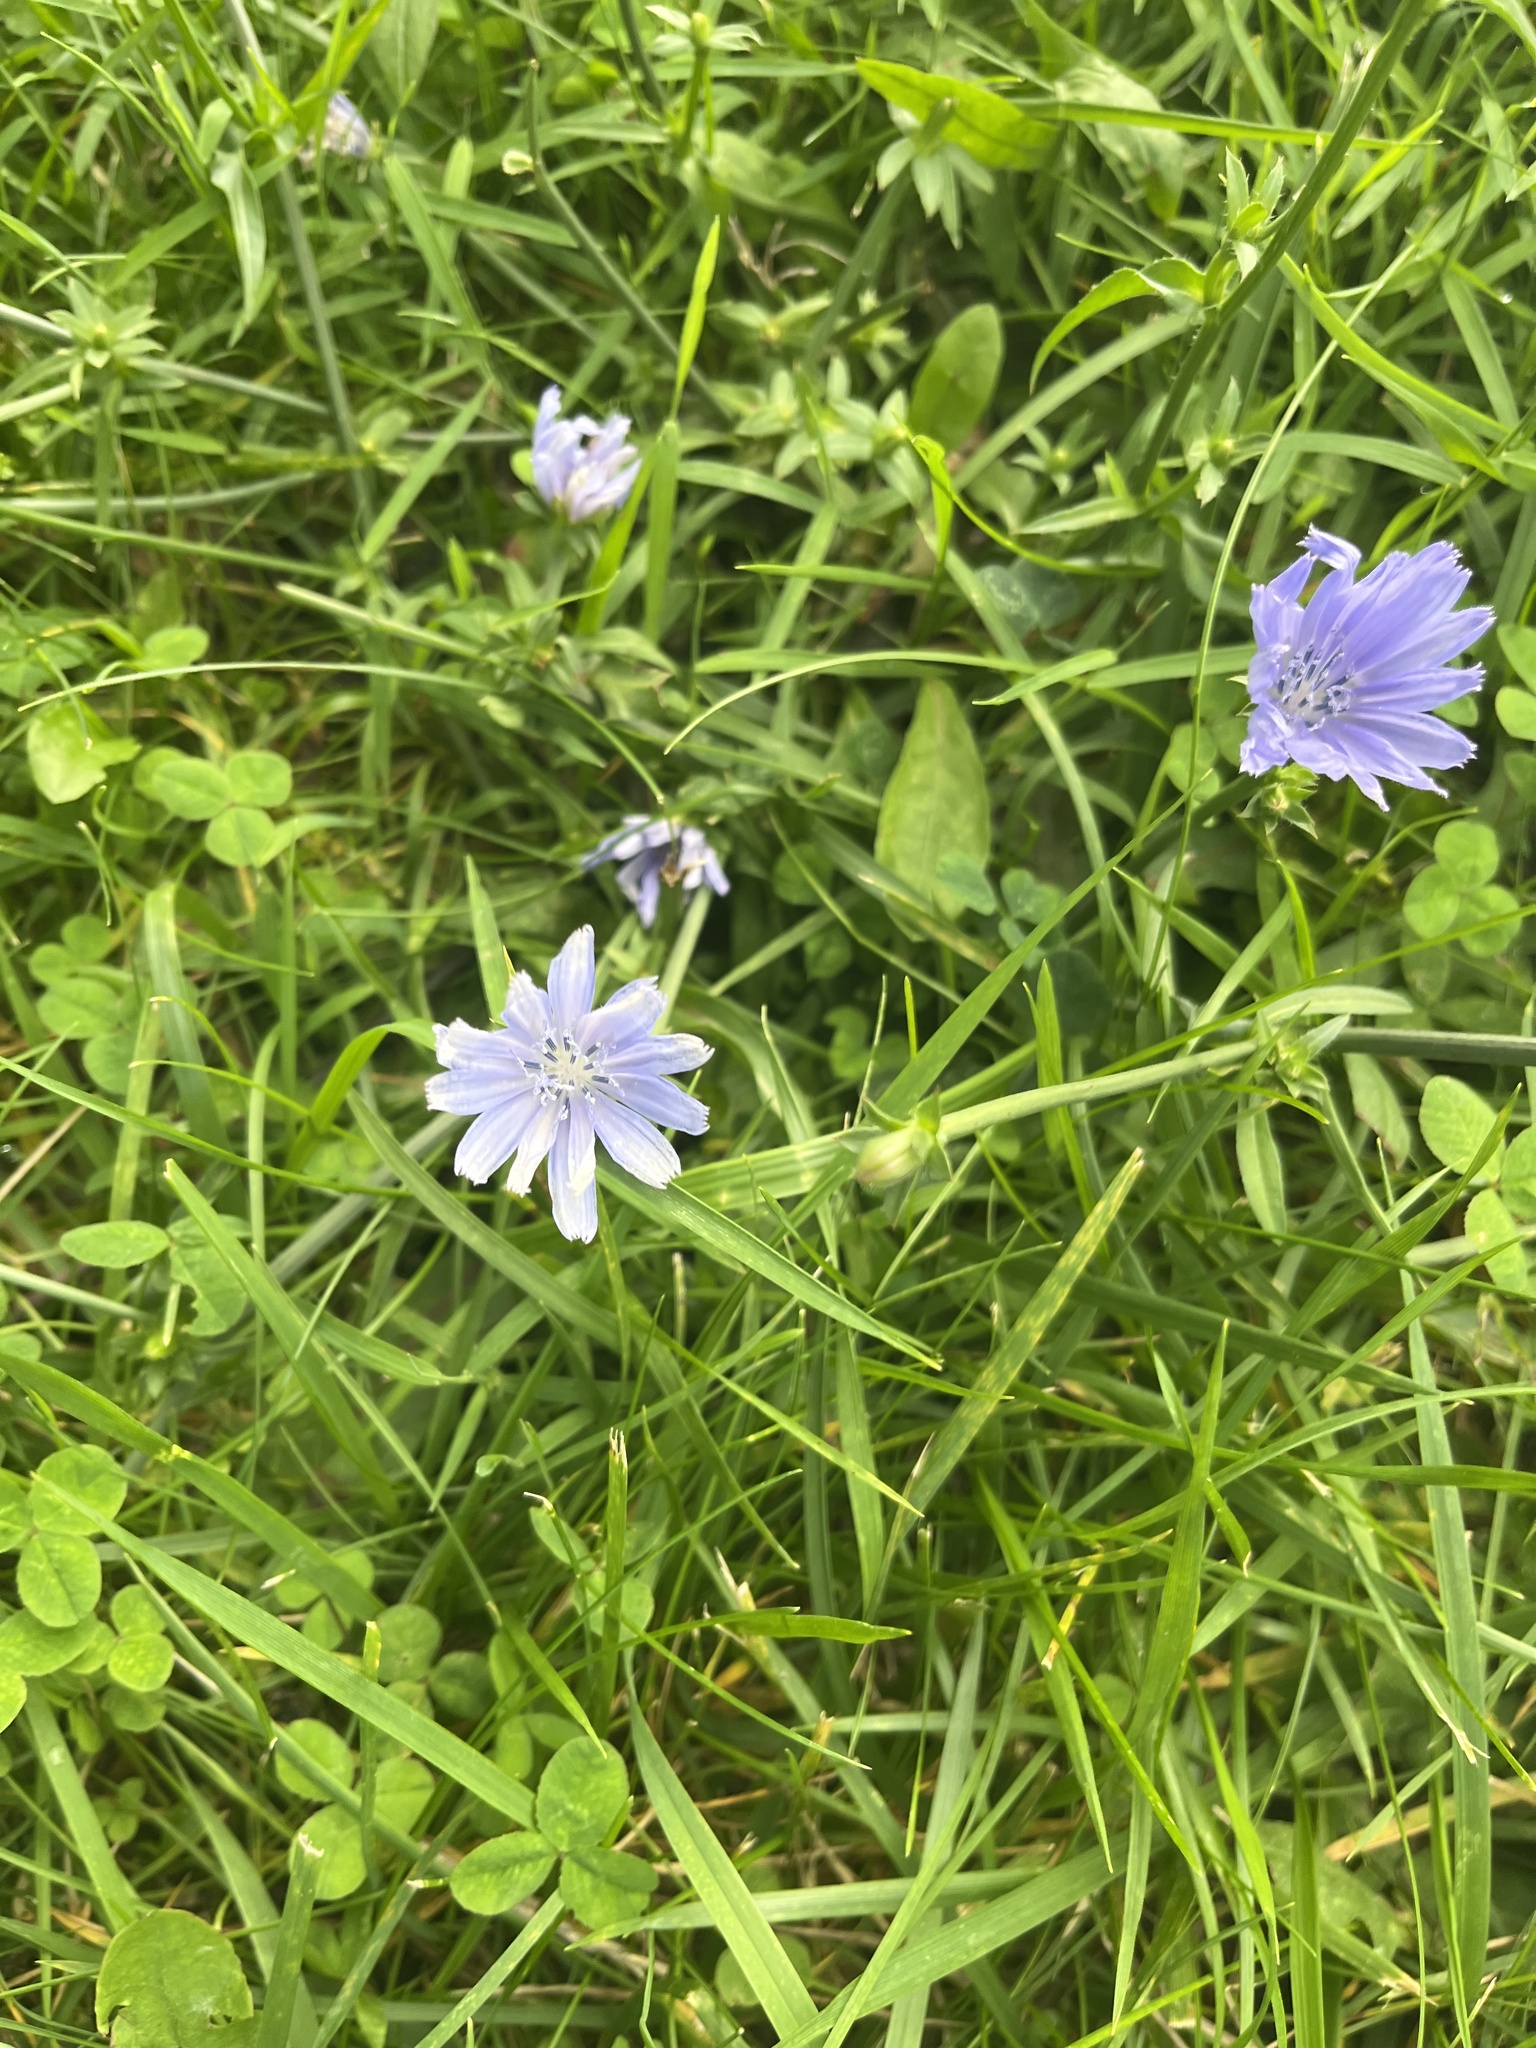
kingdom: Plantae
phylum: Tracheophyta
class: Magnoliopsida
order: Asterales
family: Asteraceae
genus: Cichorium
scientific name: Cichorium intybus
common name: Chicory
